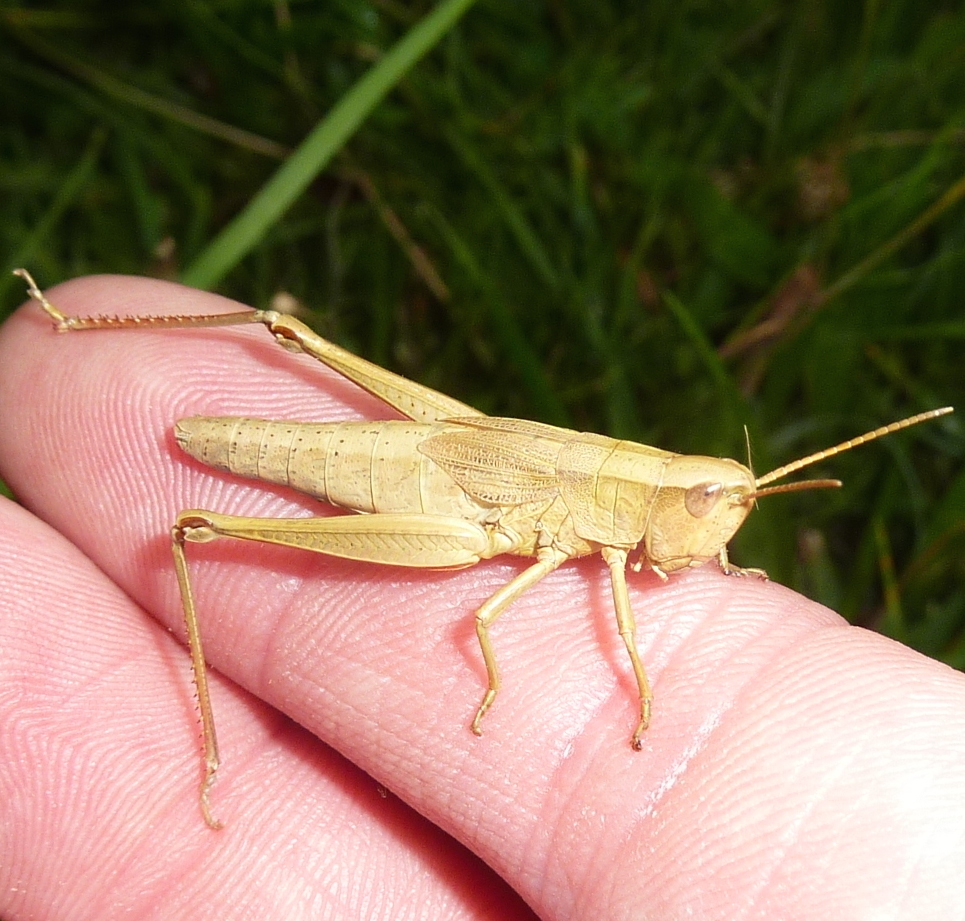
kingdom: Animalia
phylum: Arthropoda
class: Insecta
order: Orthoptera
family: Acrididae
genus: Chrysochraon
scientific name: Chrysochraon dispar
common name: Large gold grasshopper
